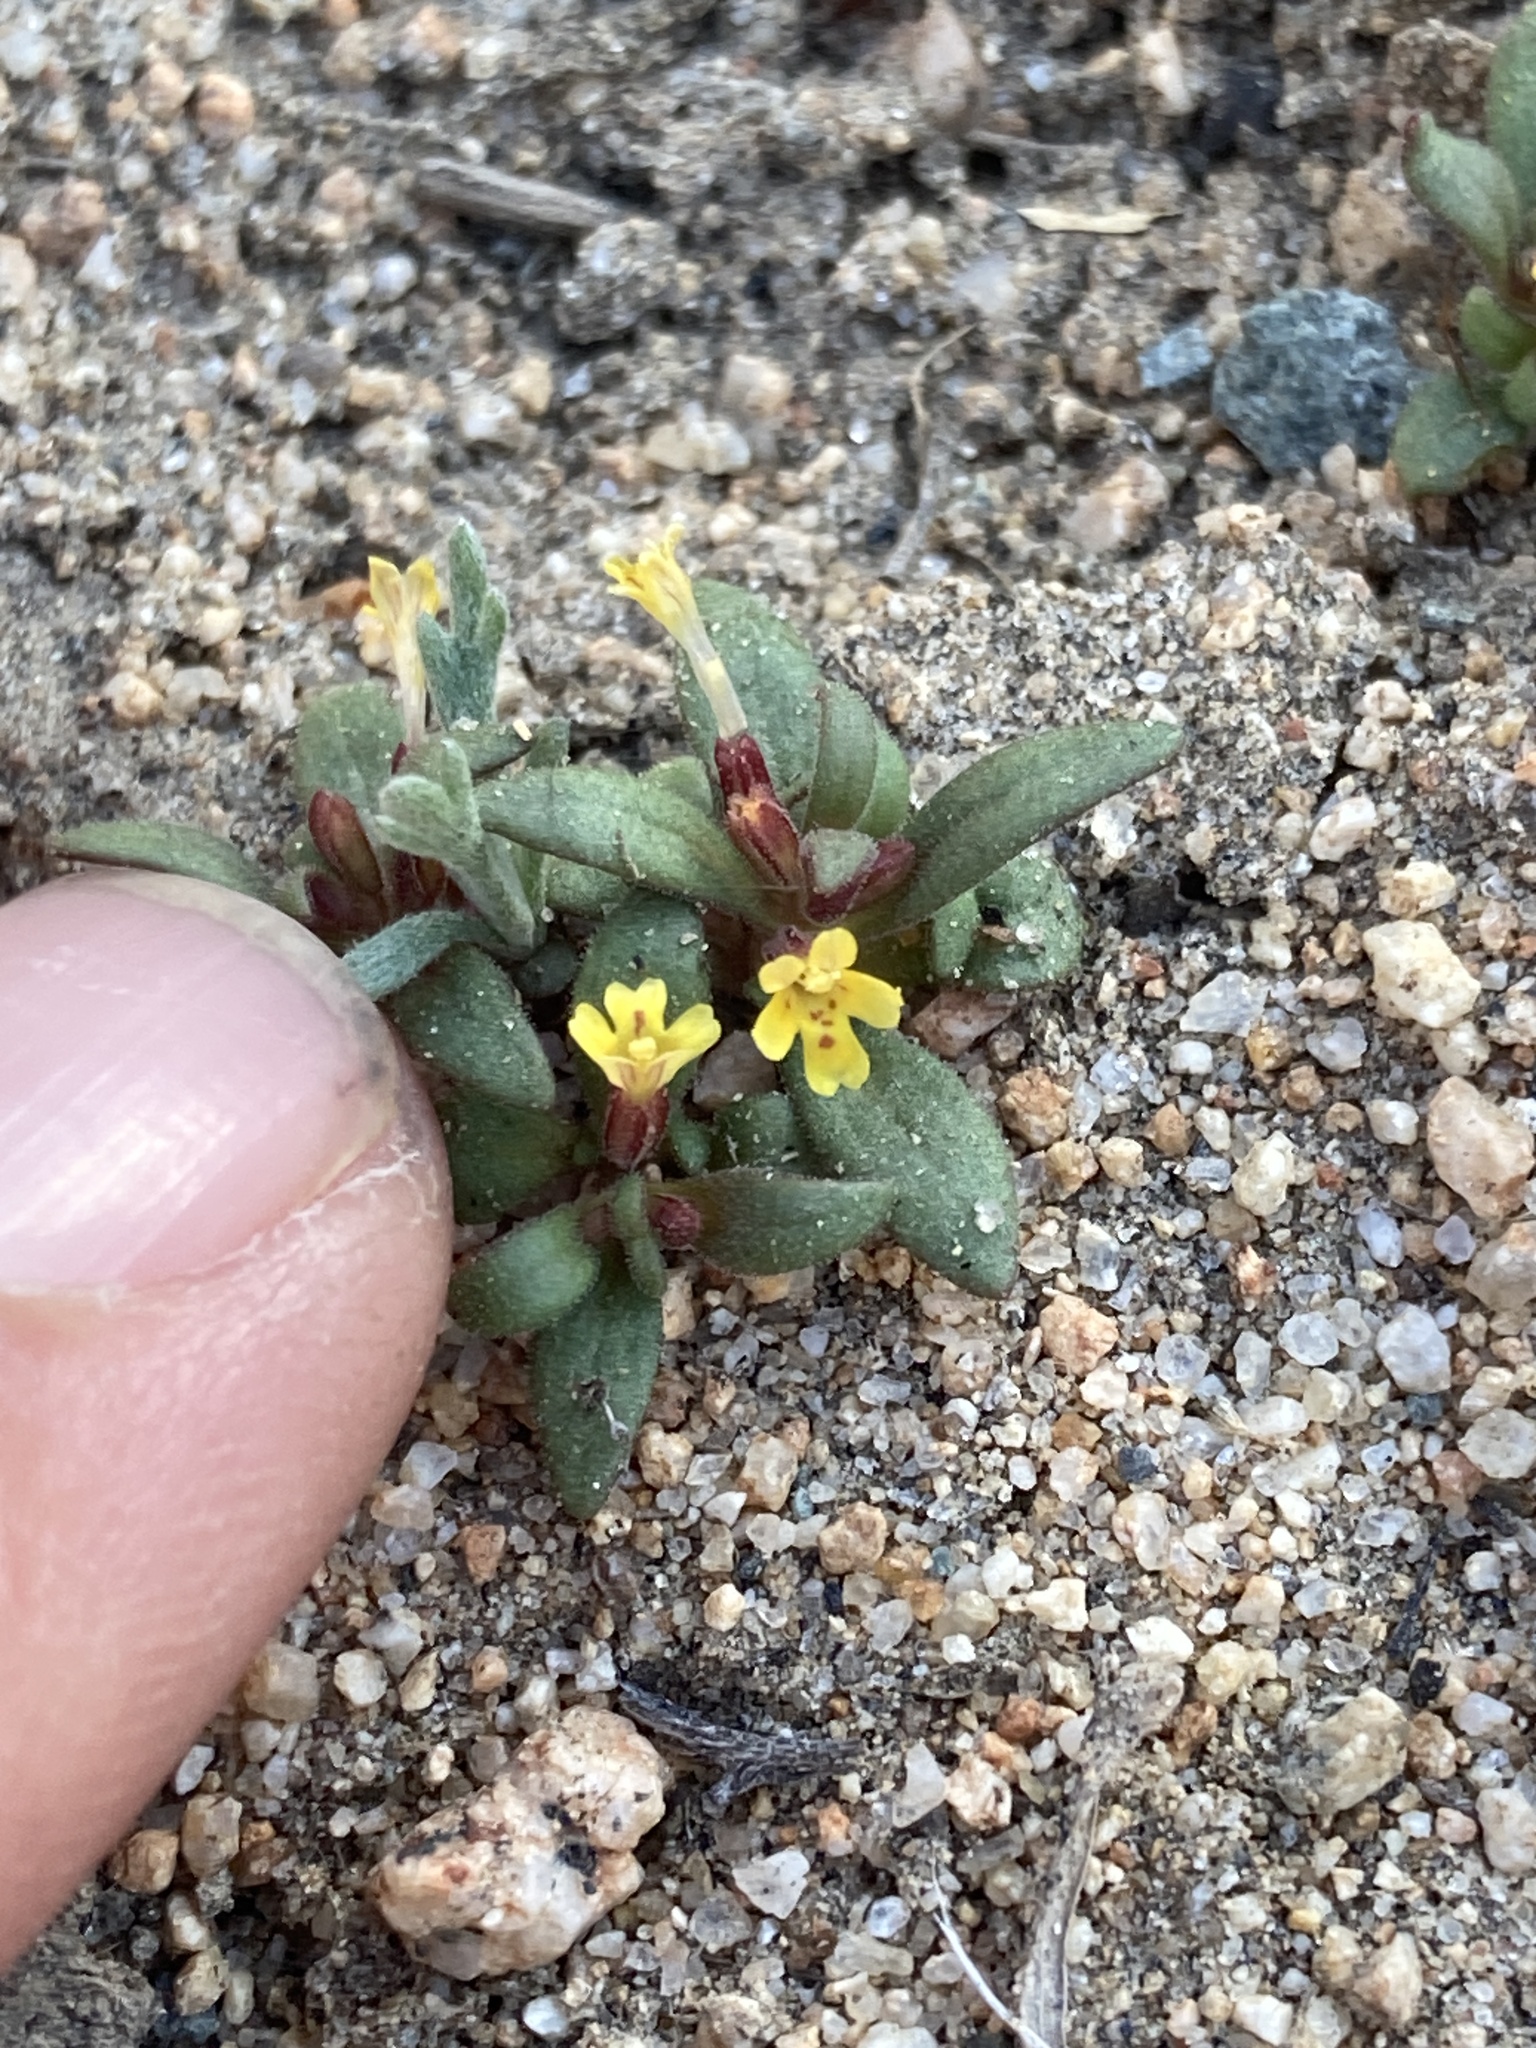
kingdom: Plantae
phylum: Tracheophyta
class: Magnoliopsida
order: Lamiales
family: Phrymaceae
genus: Erythranthe
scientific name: Erythranthe suksdorfii
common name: Suksdorf's monkeyflower
